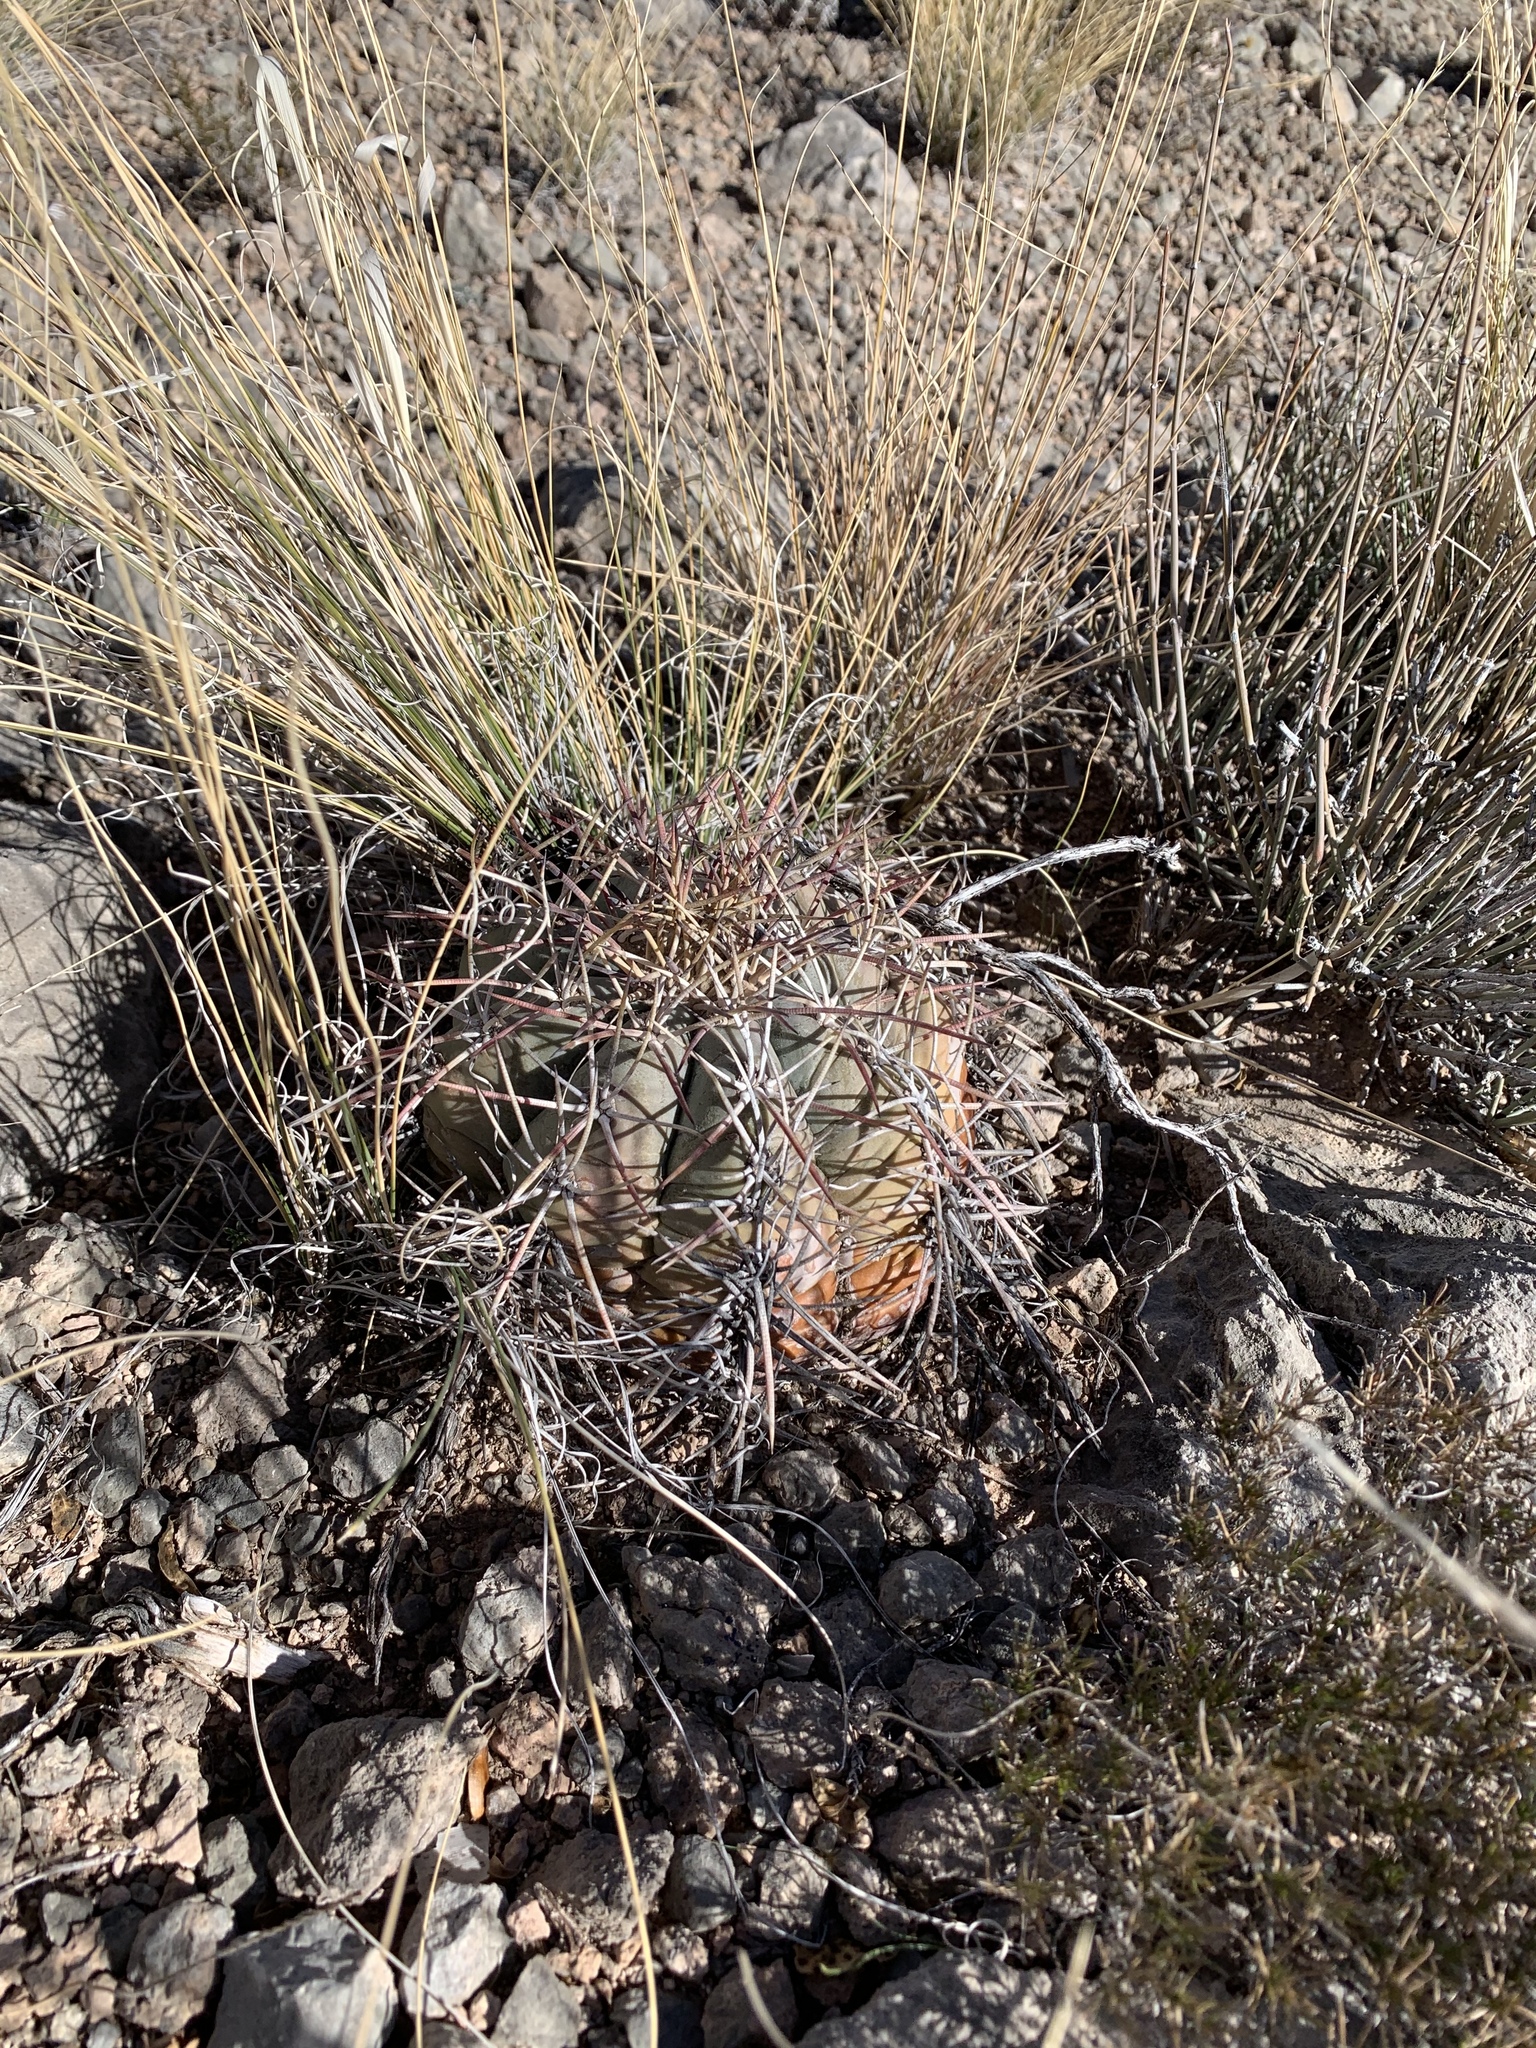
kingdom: Plantae
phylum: Tracheophyta
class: Magnoliopsida
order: Caryophyllales
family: Cactaceae
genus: Echinocactus
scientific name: Echinocactus horizonthalonius
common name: Devilshead
